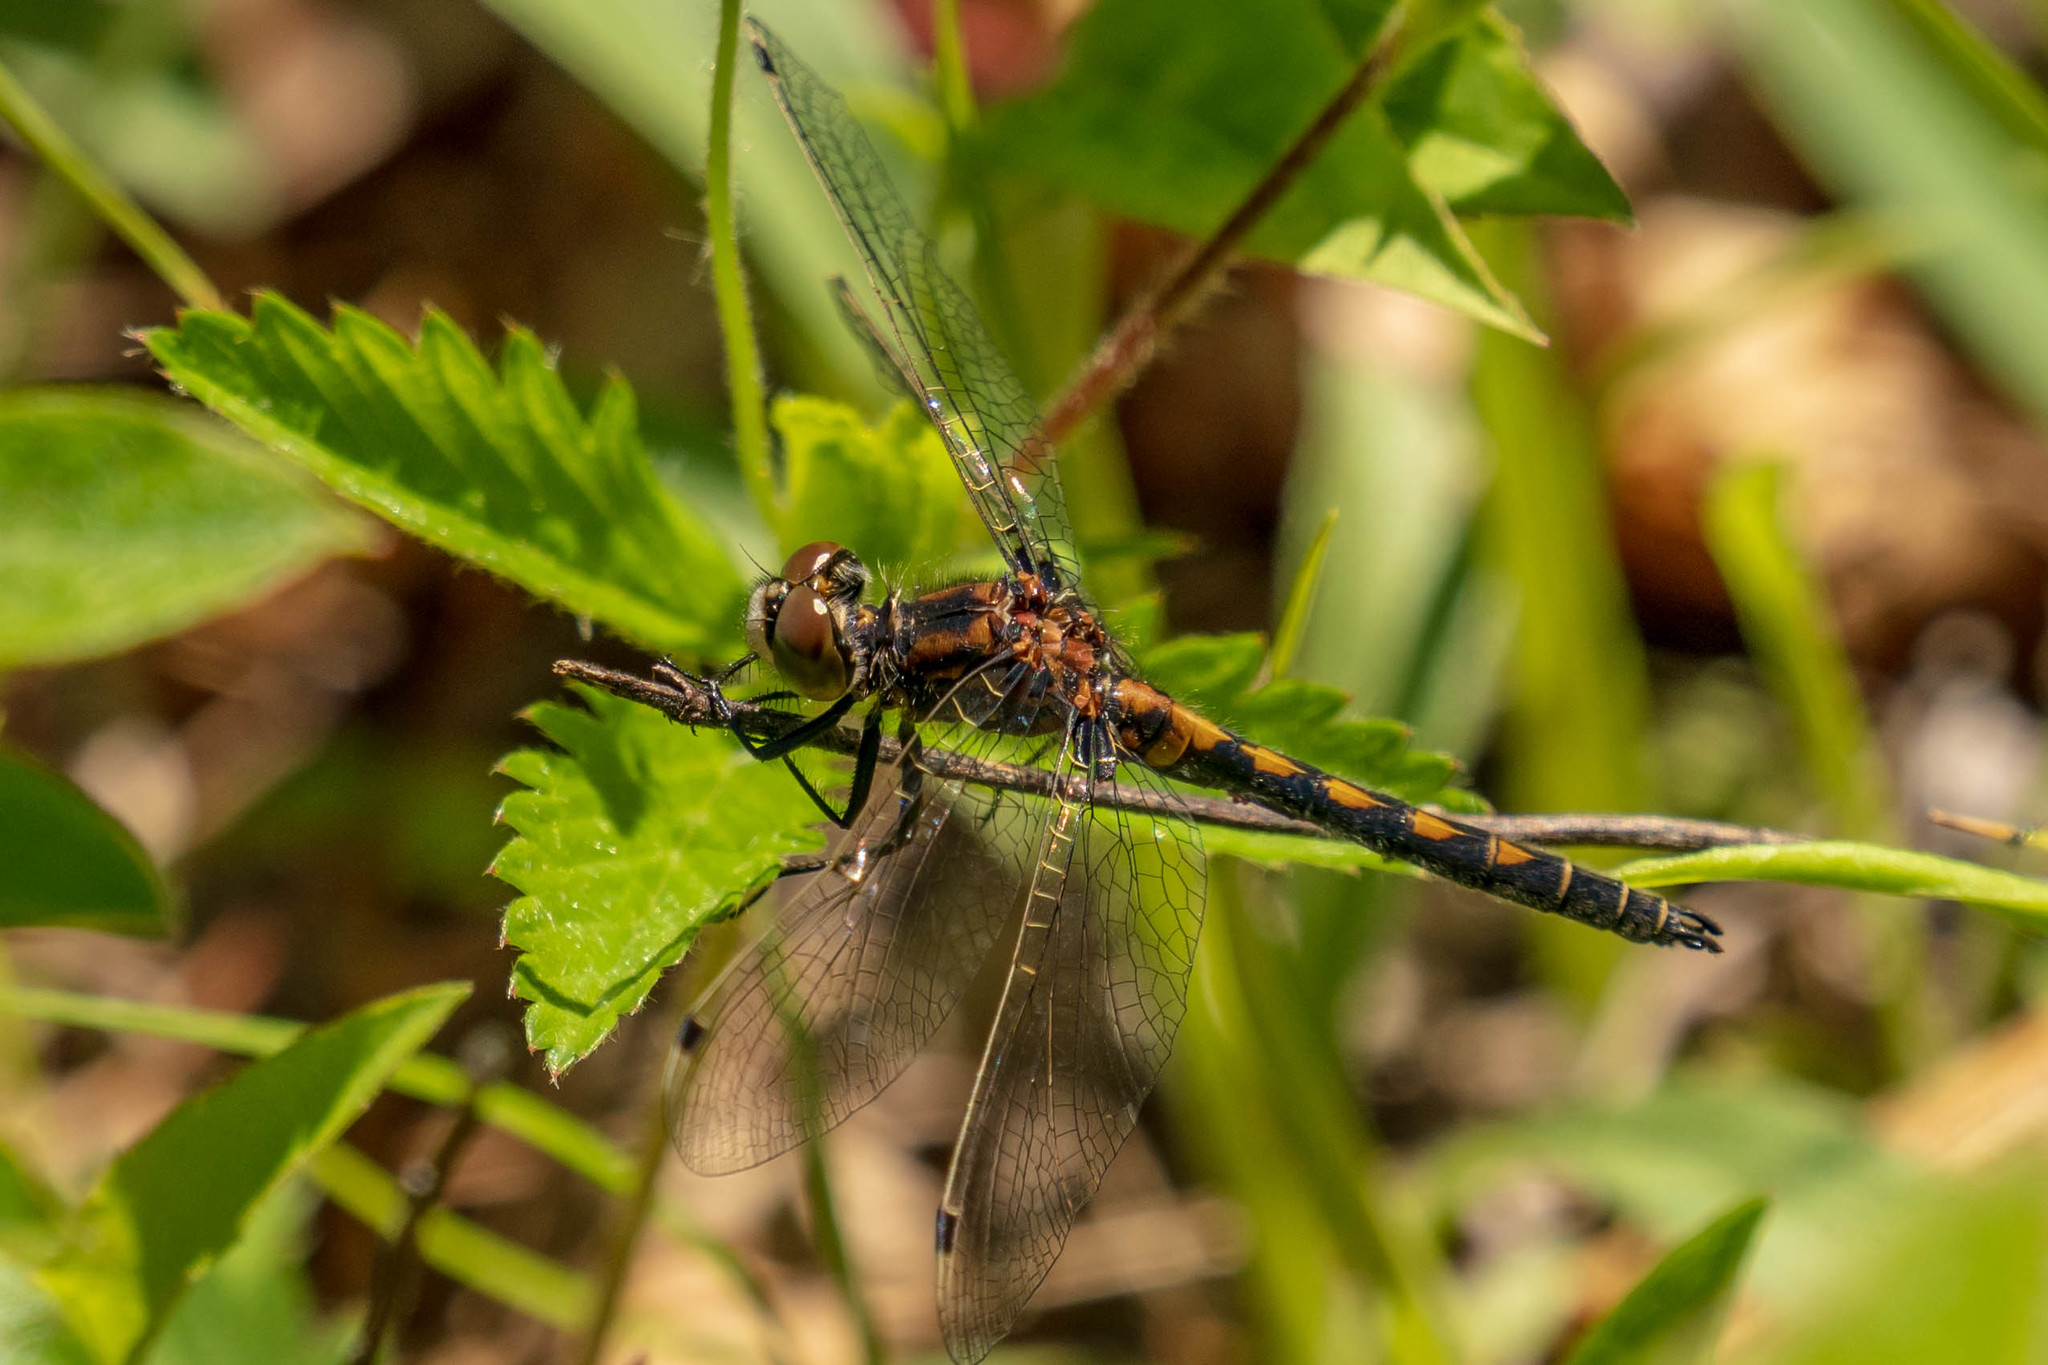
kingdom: Animalia
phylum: Arthropoda
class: Insecta
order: Odonata
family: Libellulidae
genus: Leucorrhinia
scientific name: Leucorrhinia hudsonica
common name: Hudsonian whiteface
